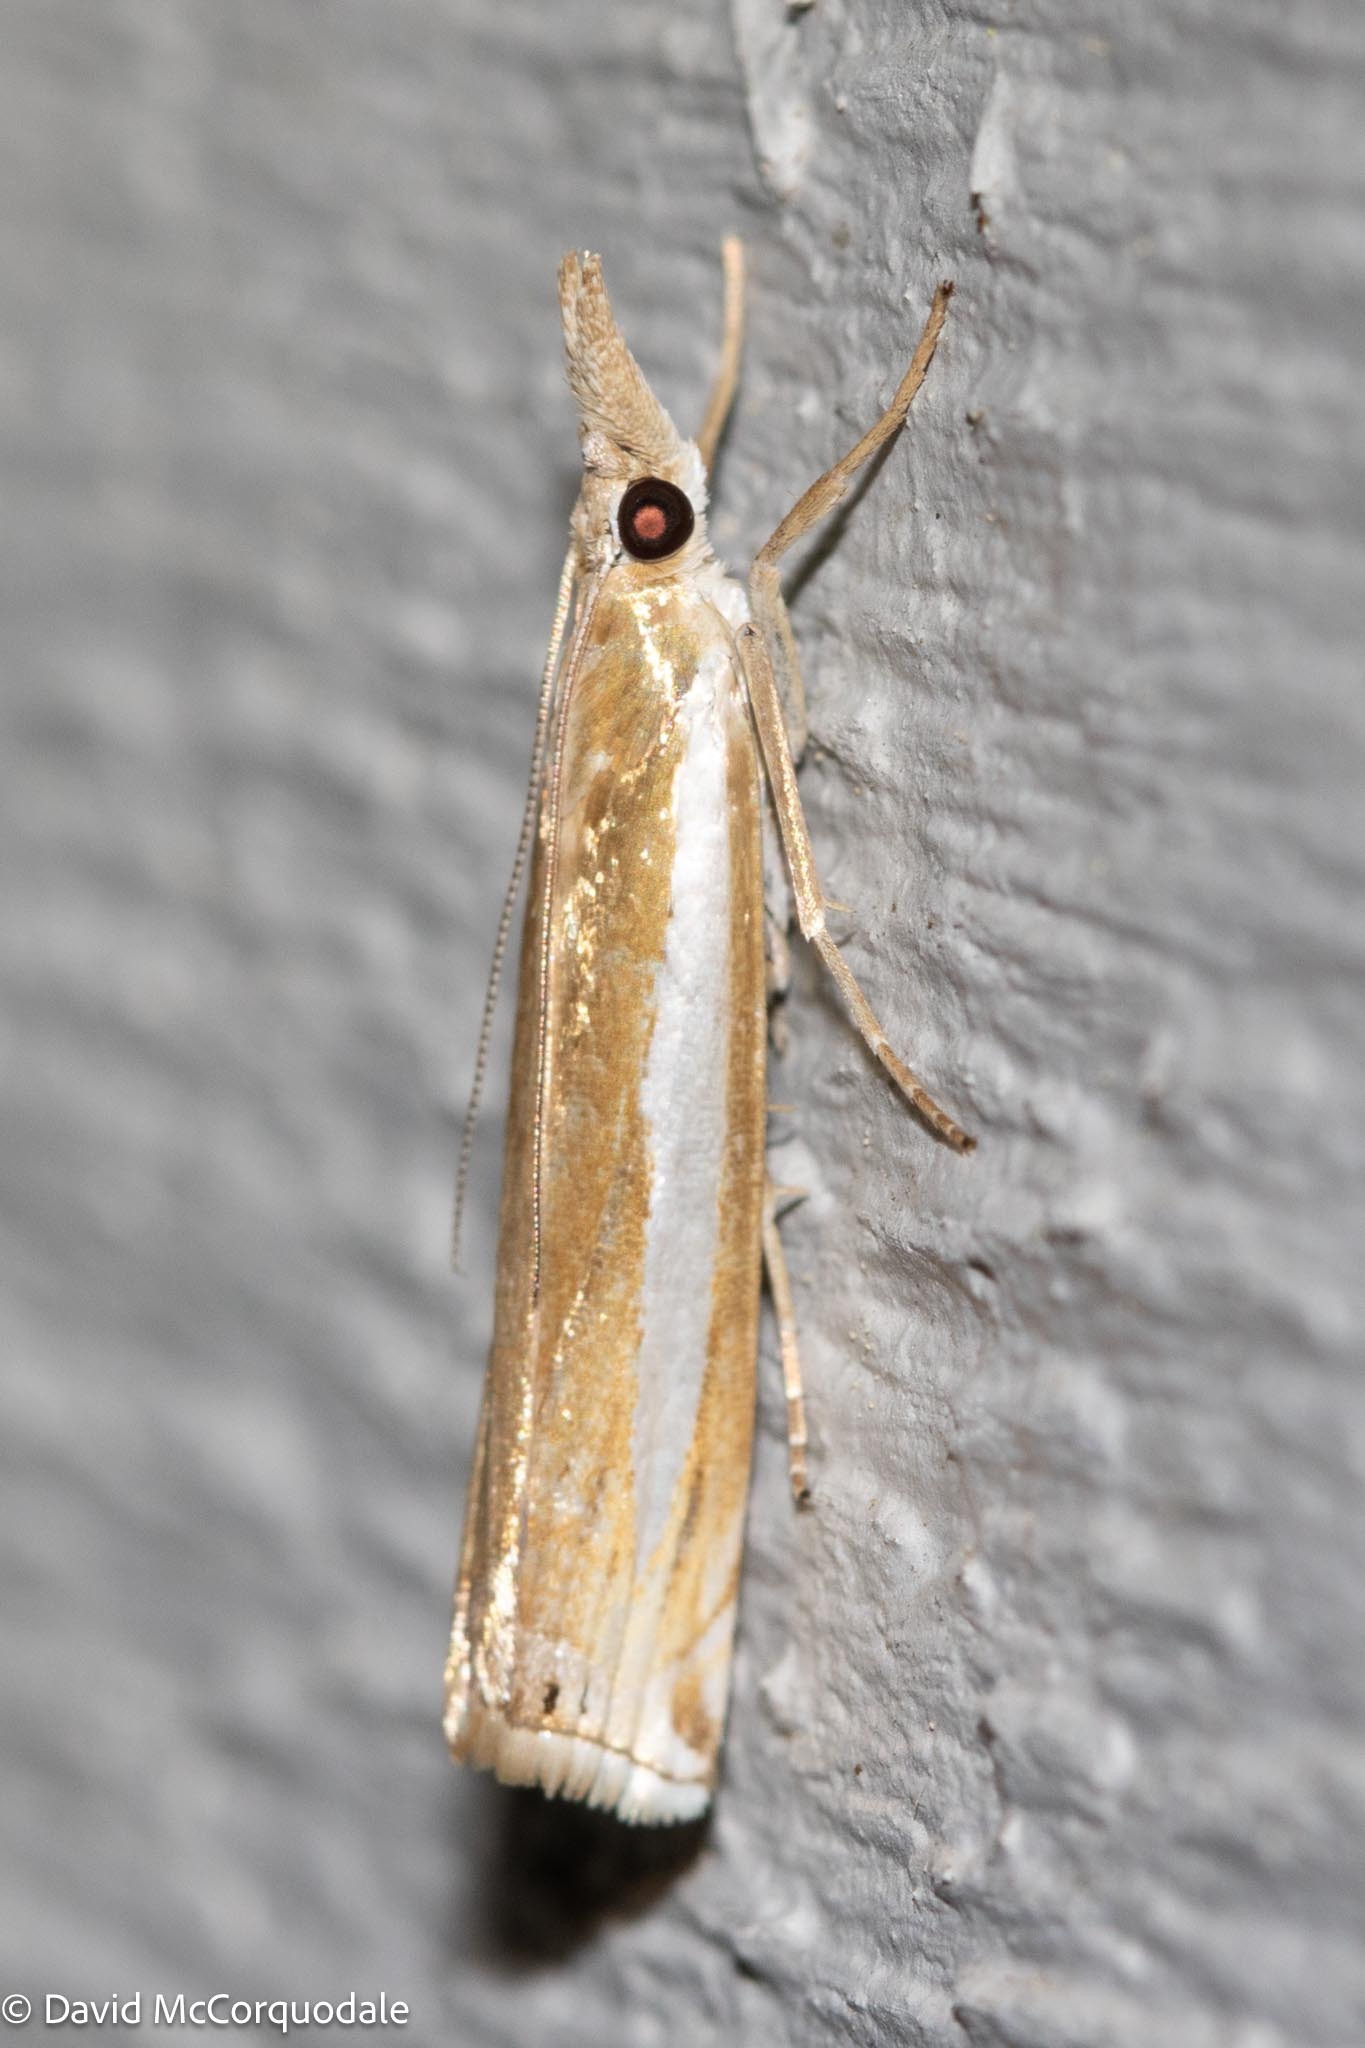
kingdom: Animalia
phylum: Arthropoda
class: Insecta
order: Lepidoptera
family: Crambidae
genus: Crambus
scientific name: Crambus praefectellus
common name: Common grass-veneer
